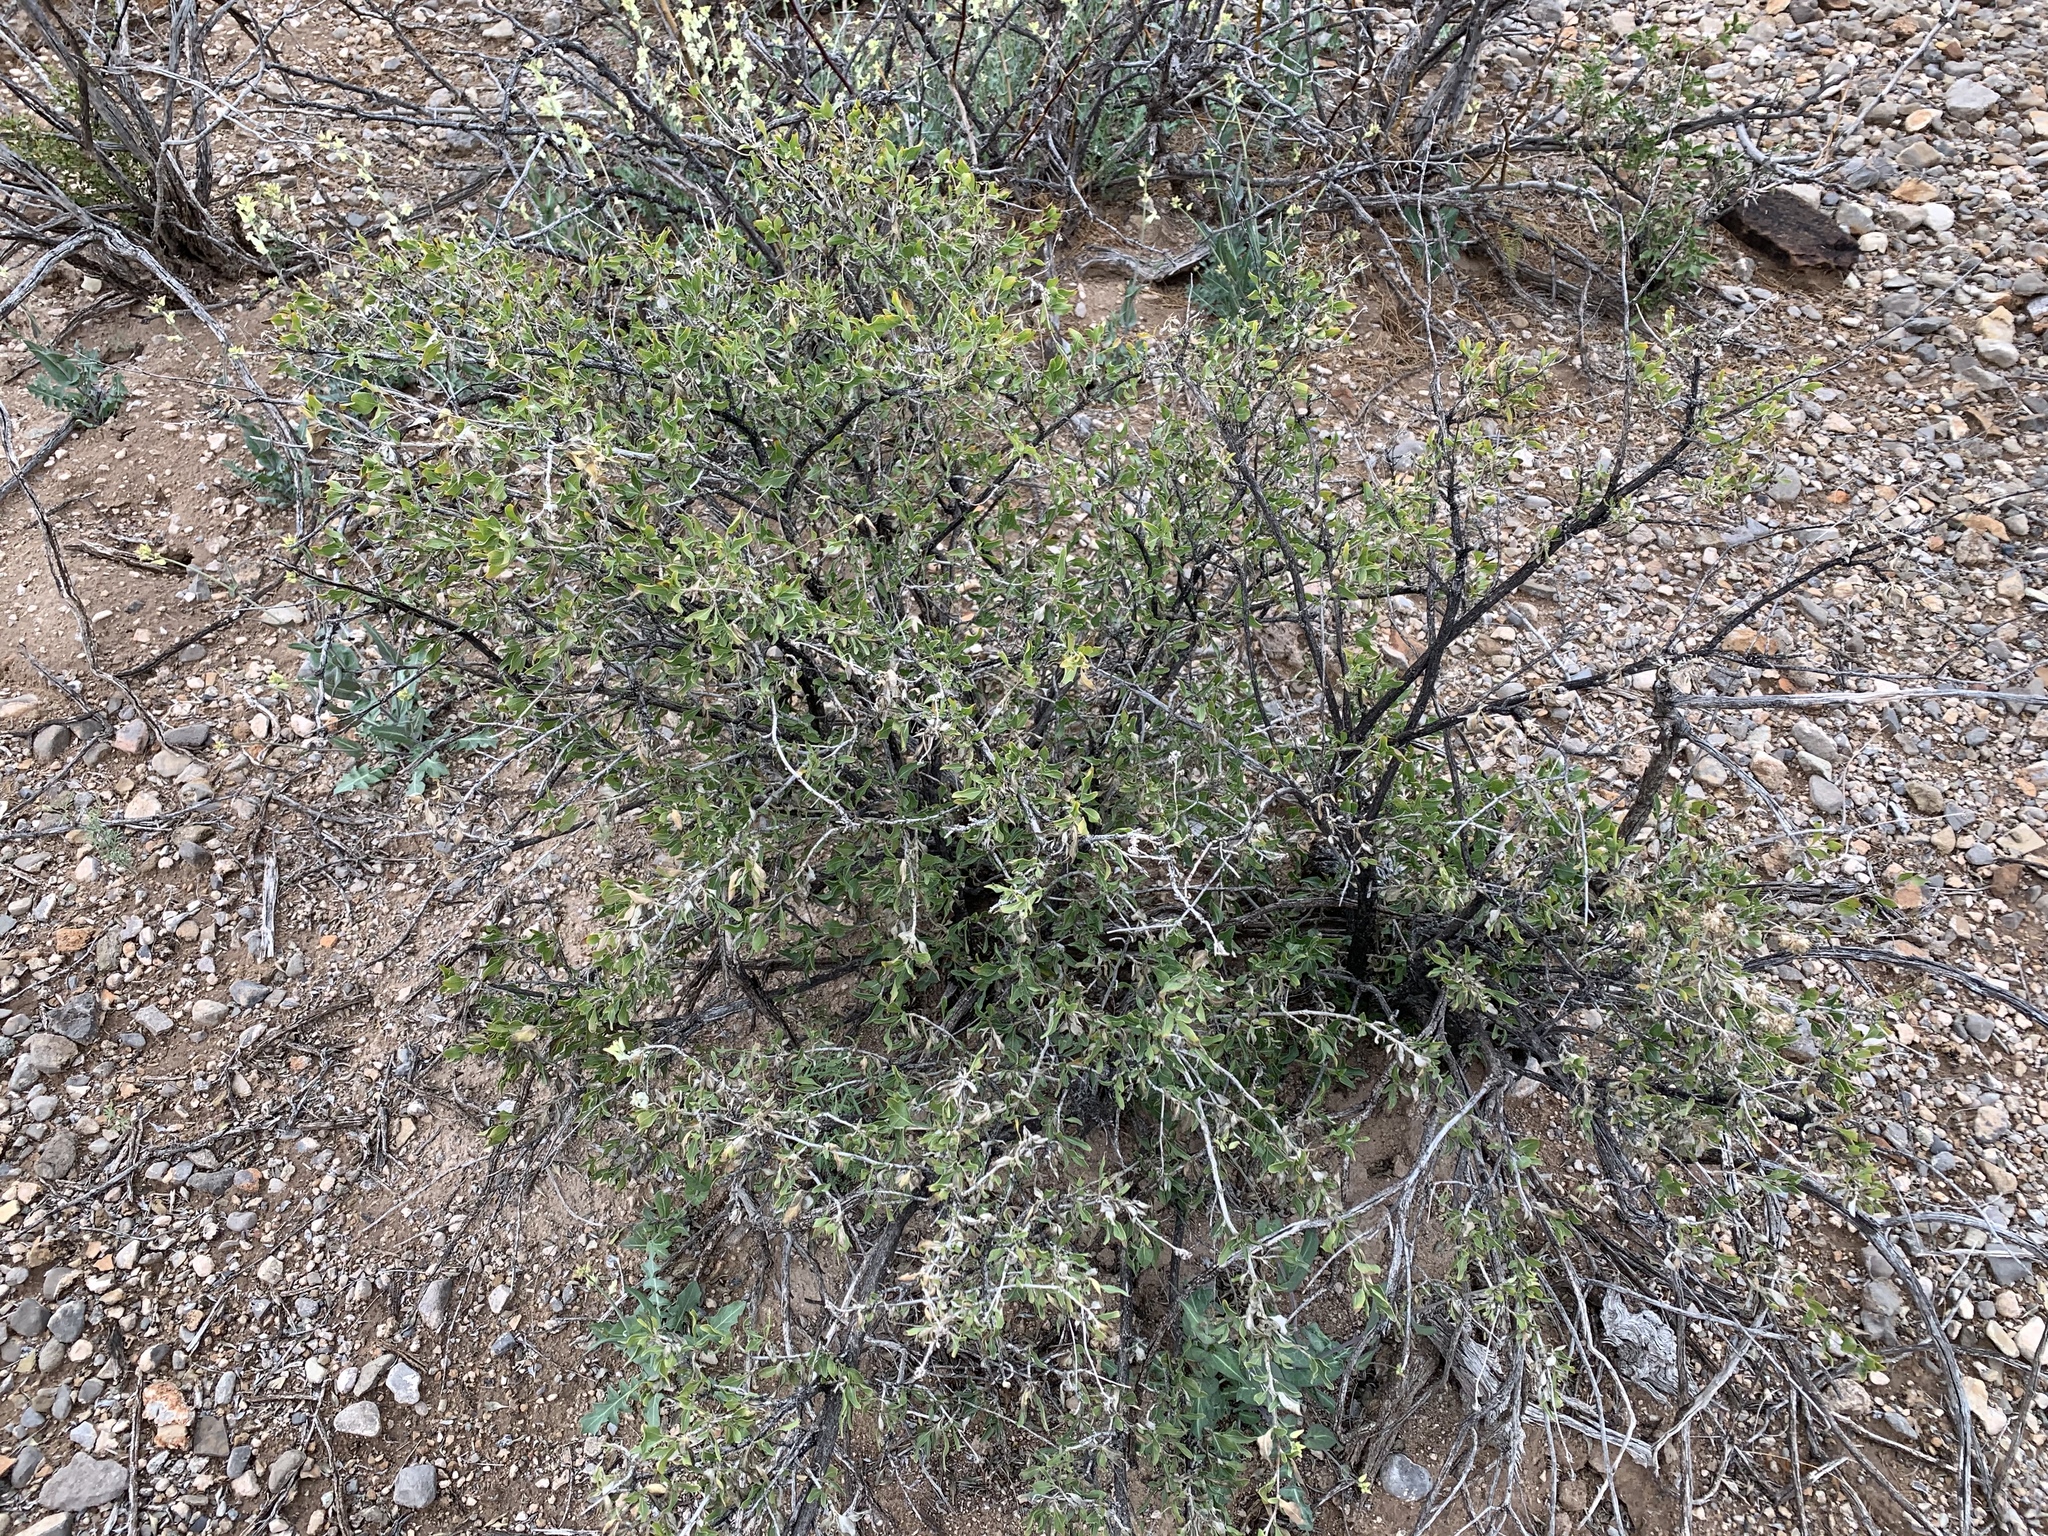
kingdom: Plantae
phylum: Tracheophyta
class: Magnoliopsida
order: Asterales
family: Asteraceae
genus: Flourensia
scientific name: Flourensia cernua
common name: Varnishbush
